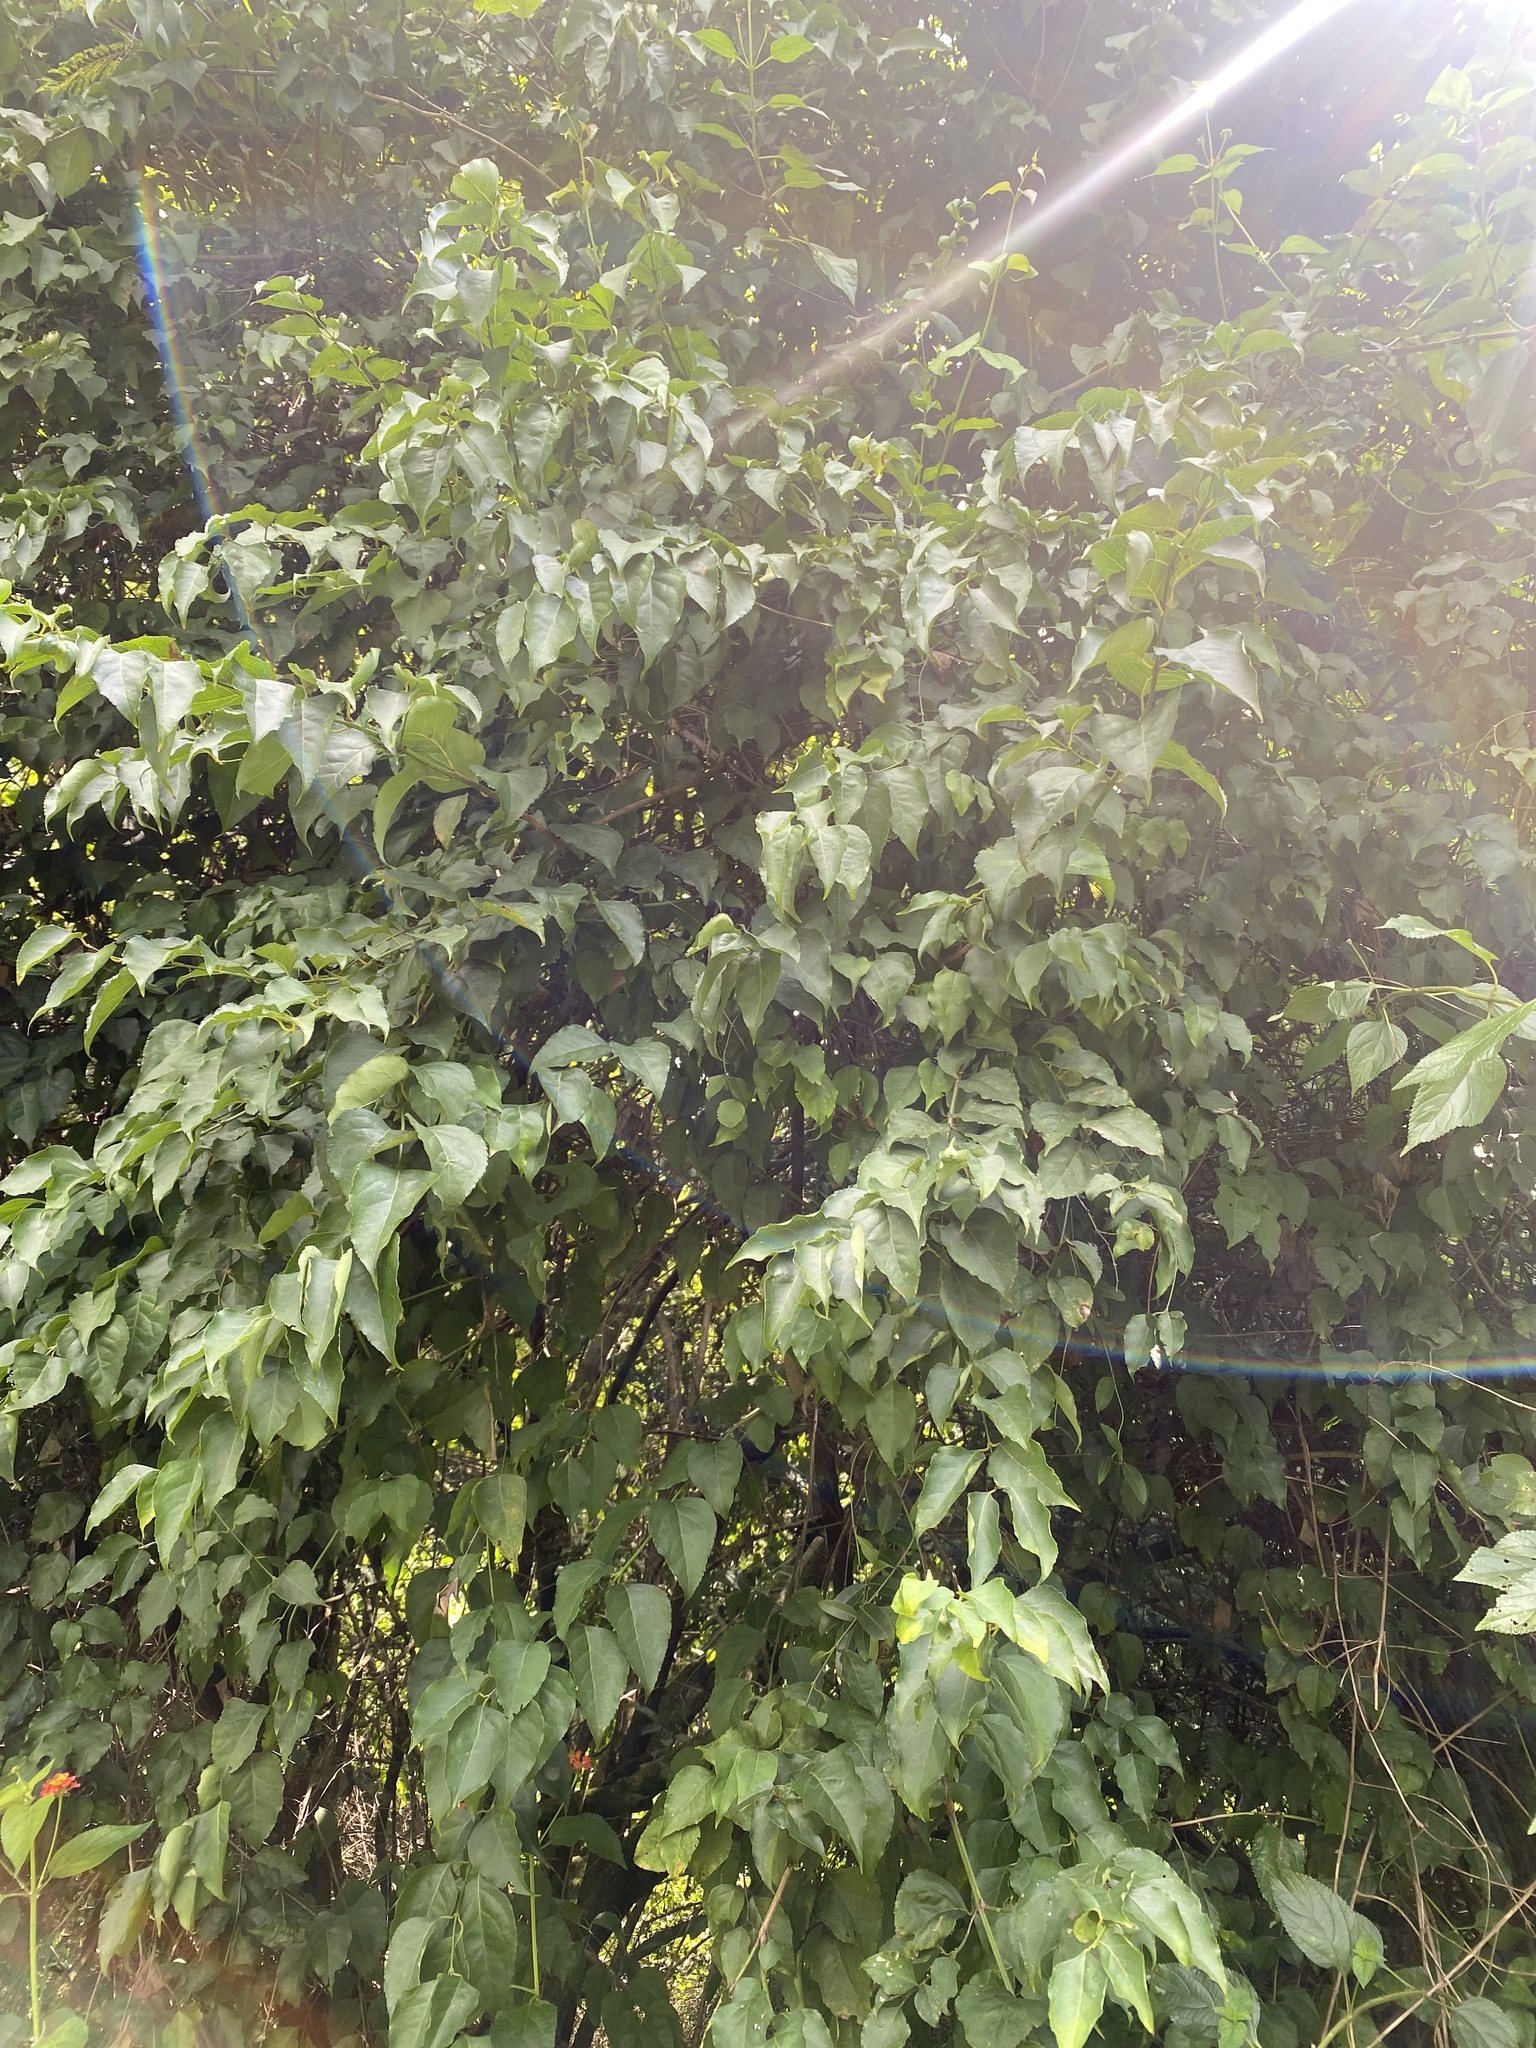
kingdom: Plantae
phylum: Tracheophyta
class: Magnoliopsida
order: Lamiales
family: Stilbaceae
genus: Halleria
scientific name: Halleria lucida
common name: Tree fuschia
